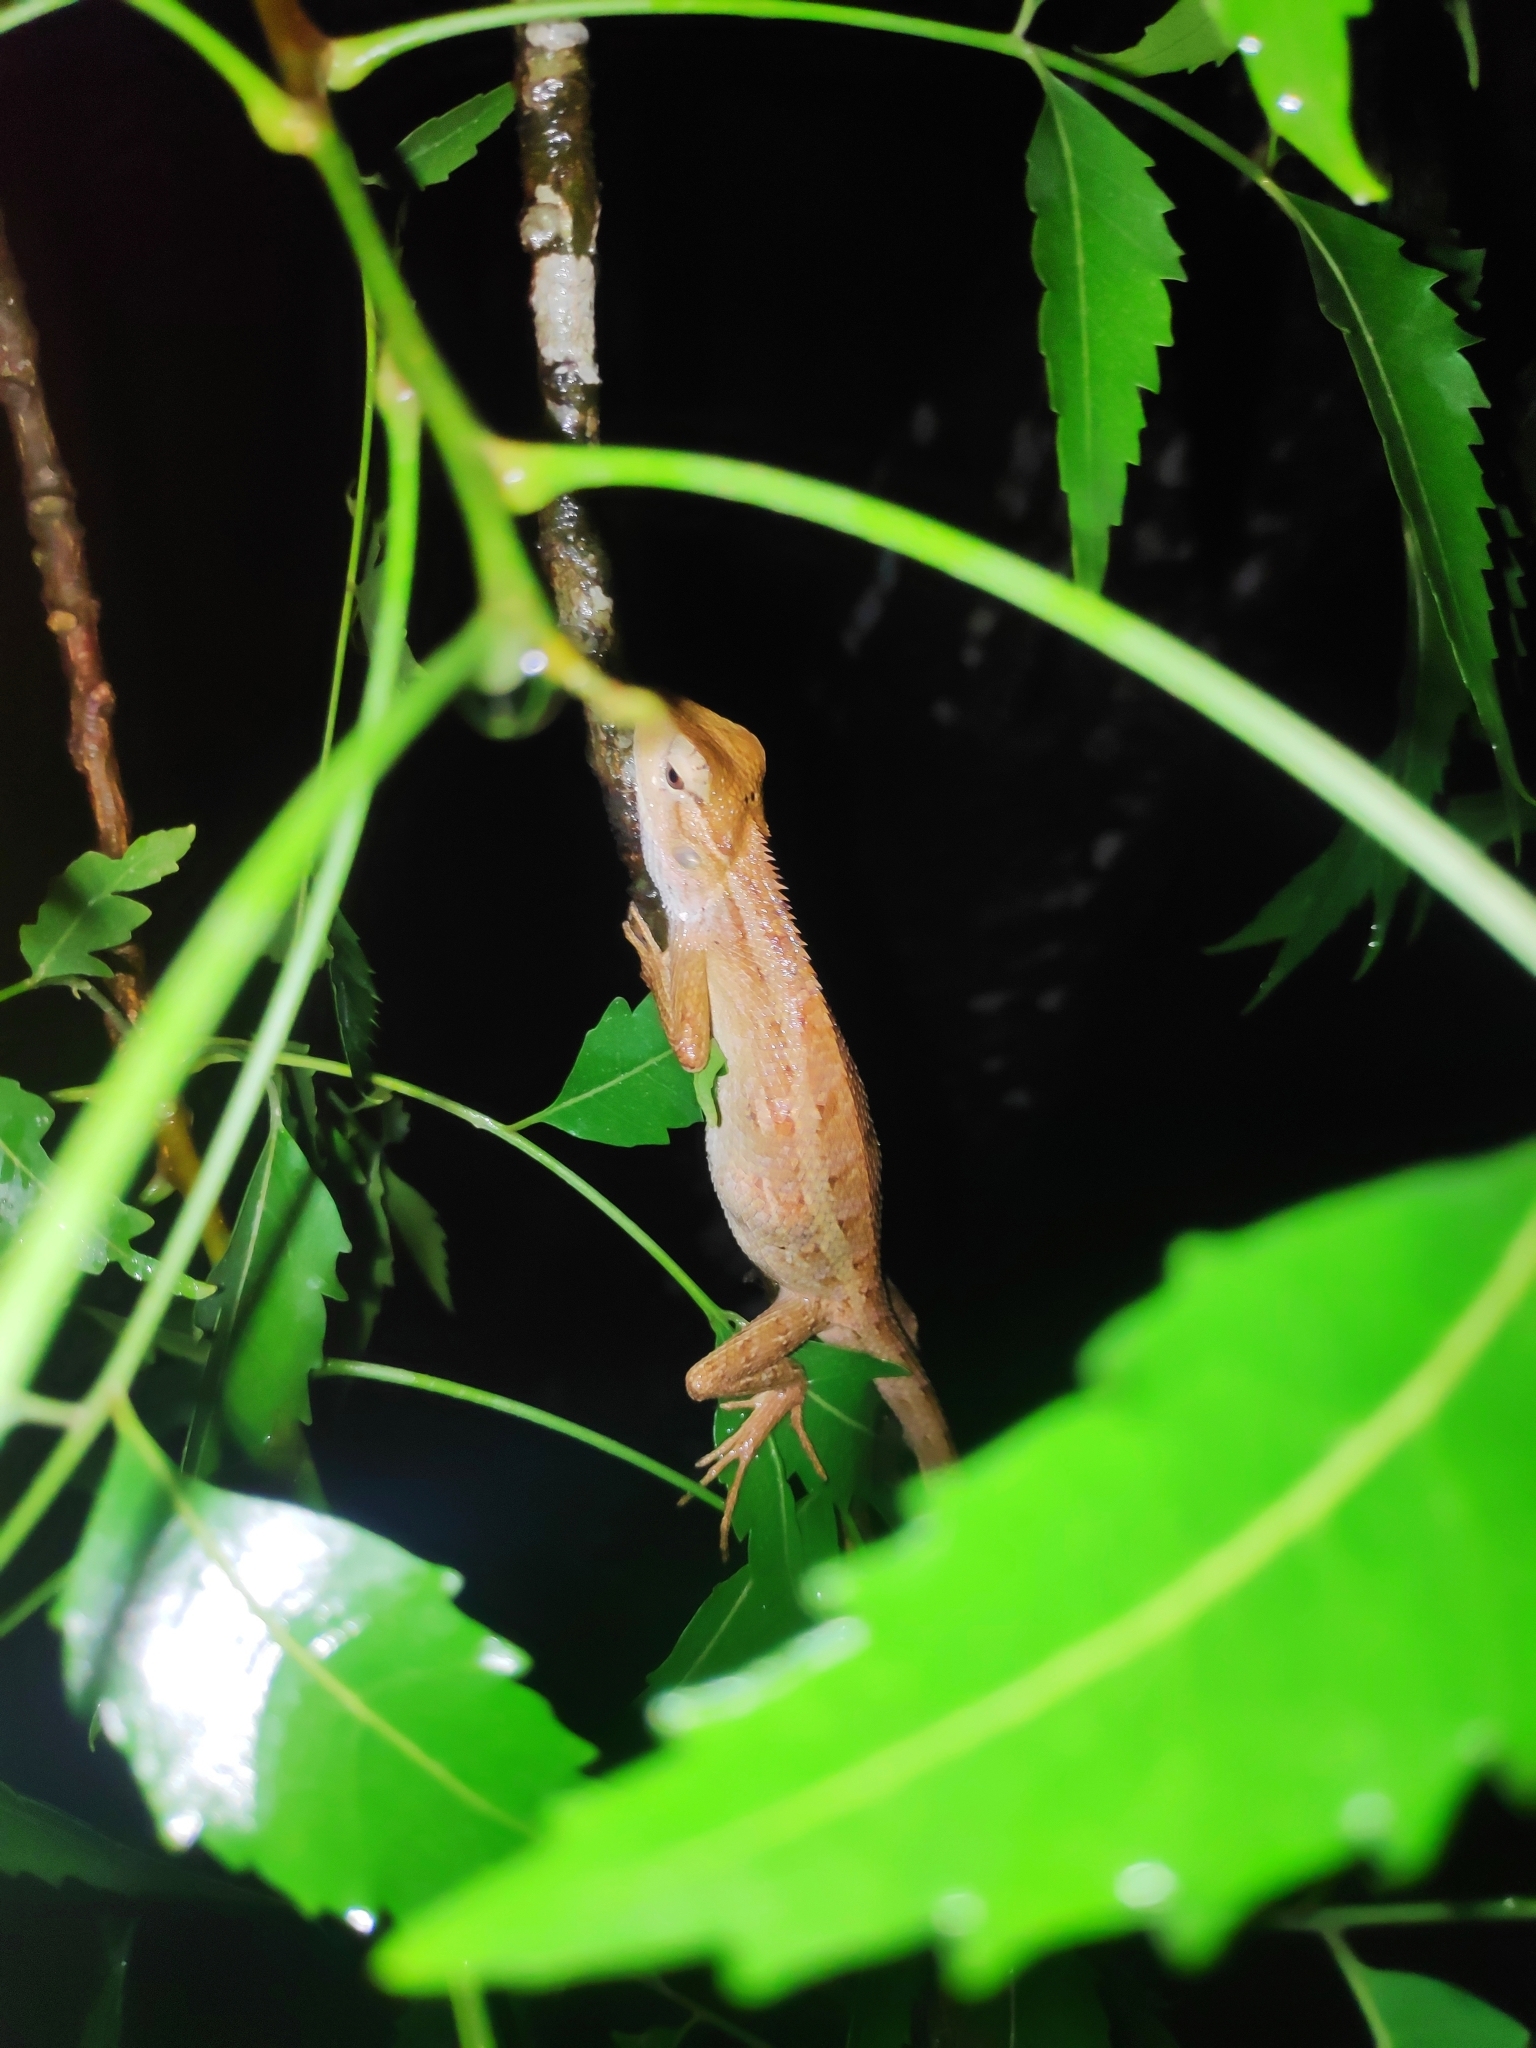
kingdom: Animalia
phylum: Chordata
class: Squamata
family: Agamidae
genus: Calotes
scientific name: Calotes versicolor
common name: Oriental garden lizard
